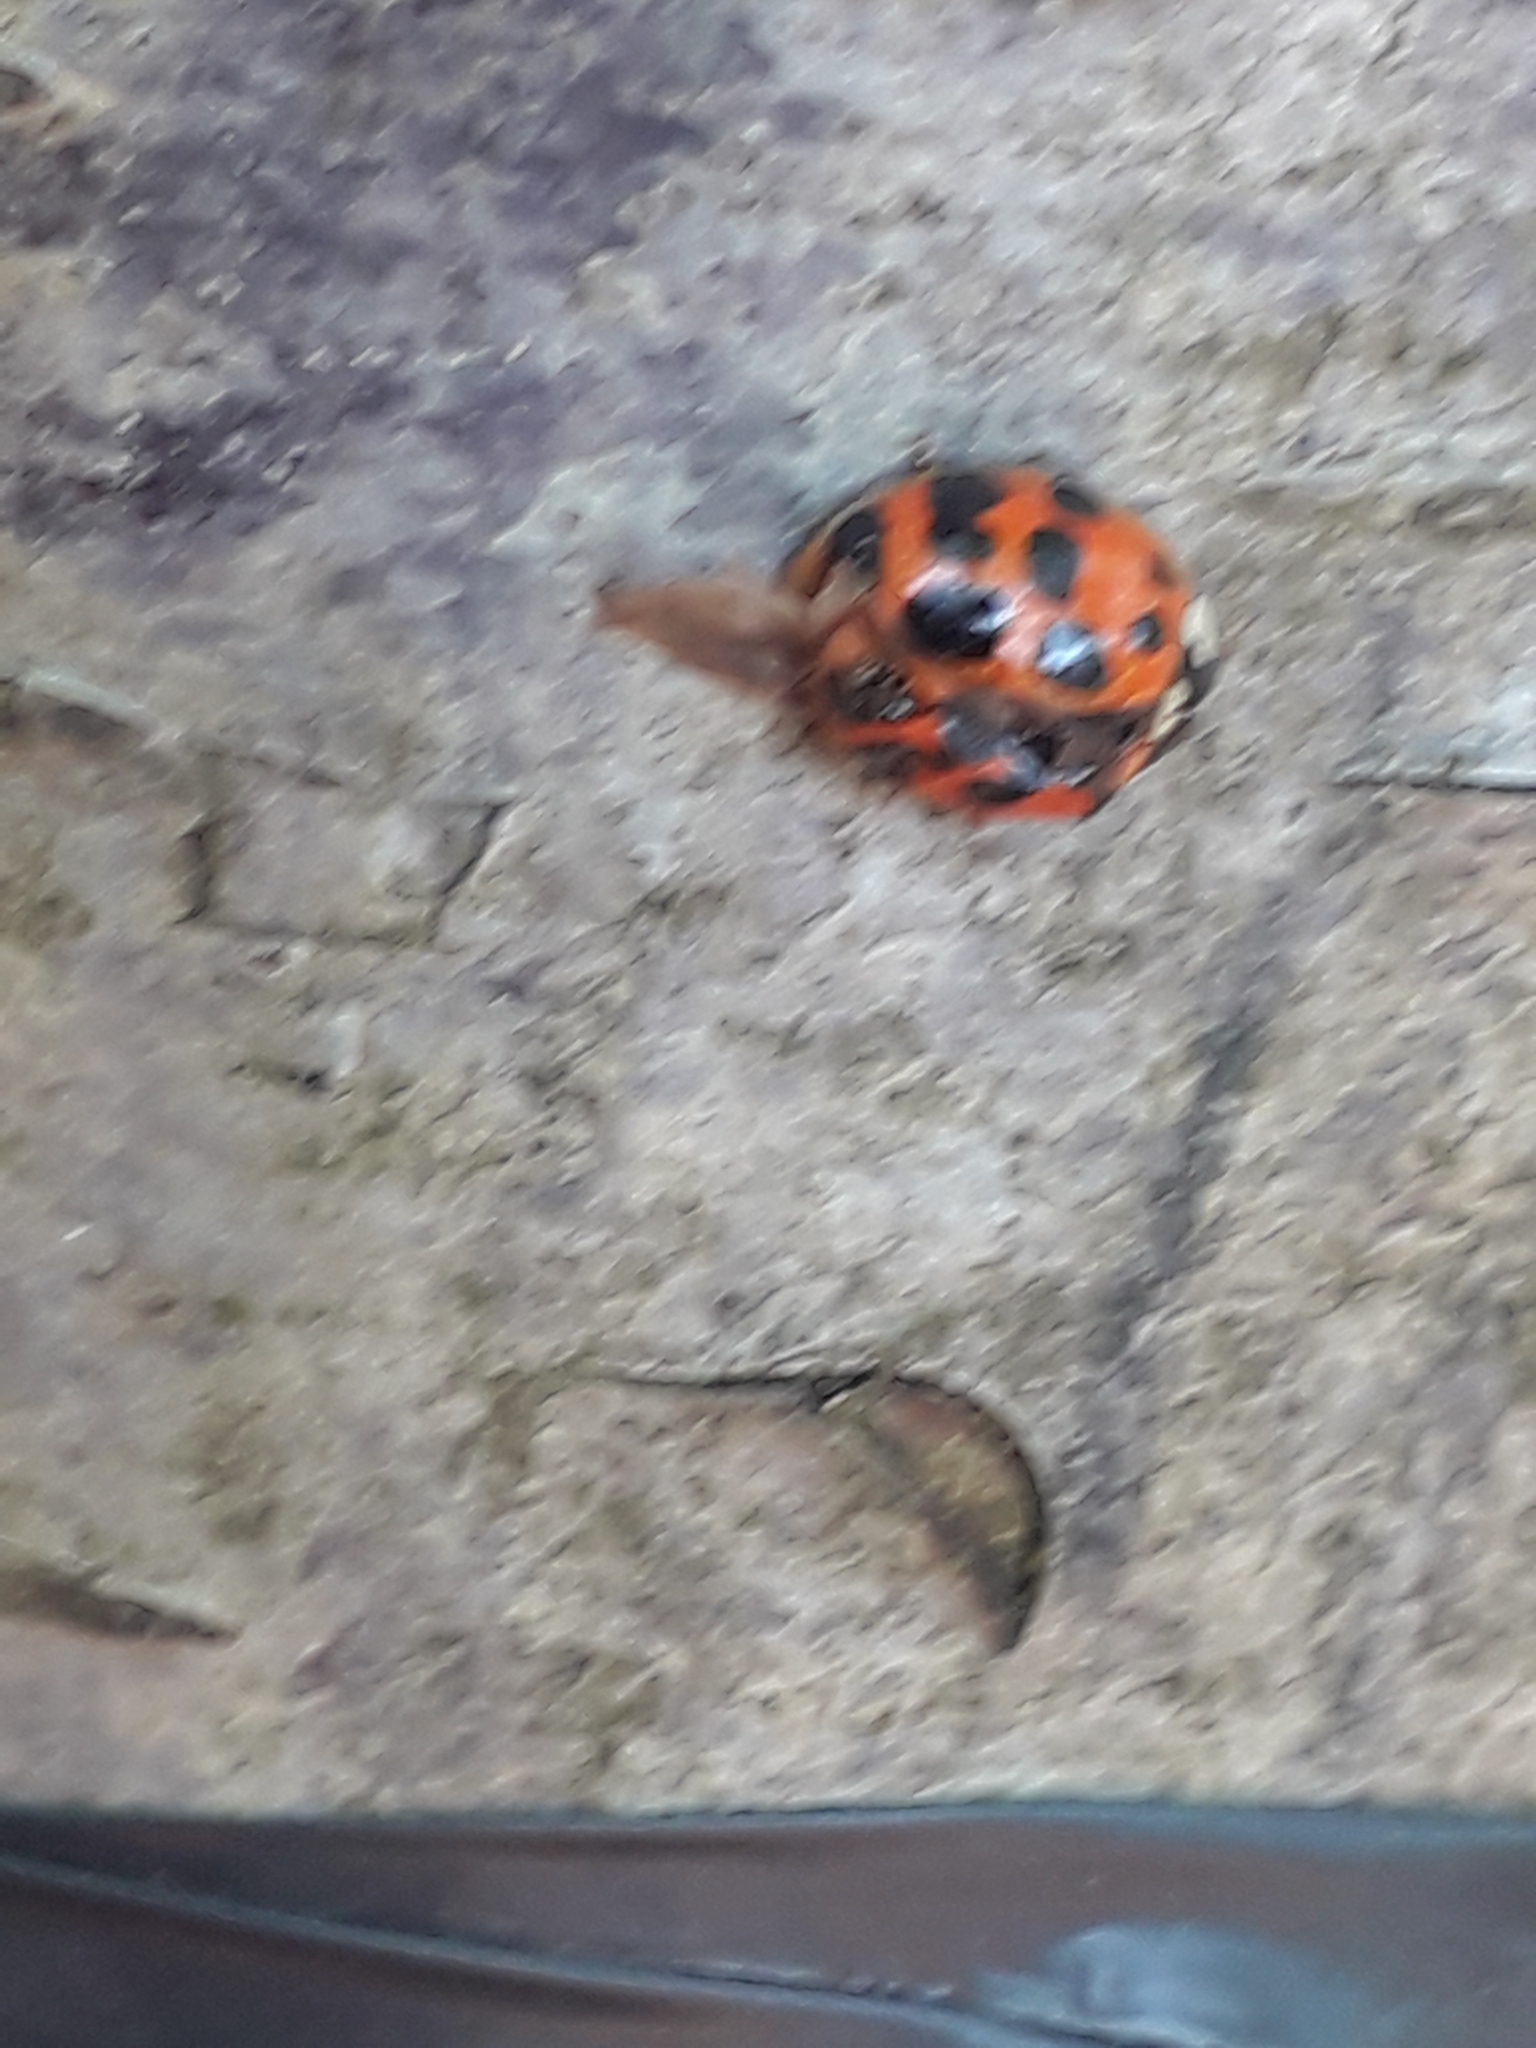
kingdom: Animalia
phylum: Arthropoda
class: Insecta
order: Coleoptera
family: Coccinellidae
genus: Harmonia
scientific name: Harmonia axyridis
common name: Harlequin ladybird
